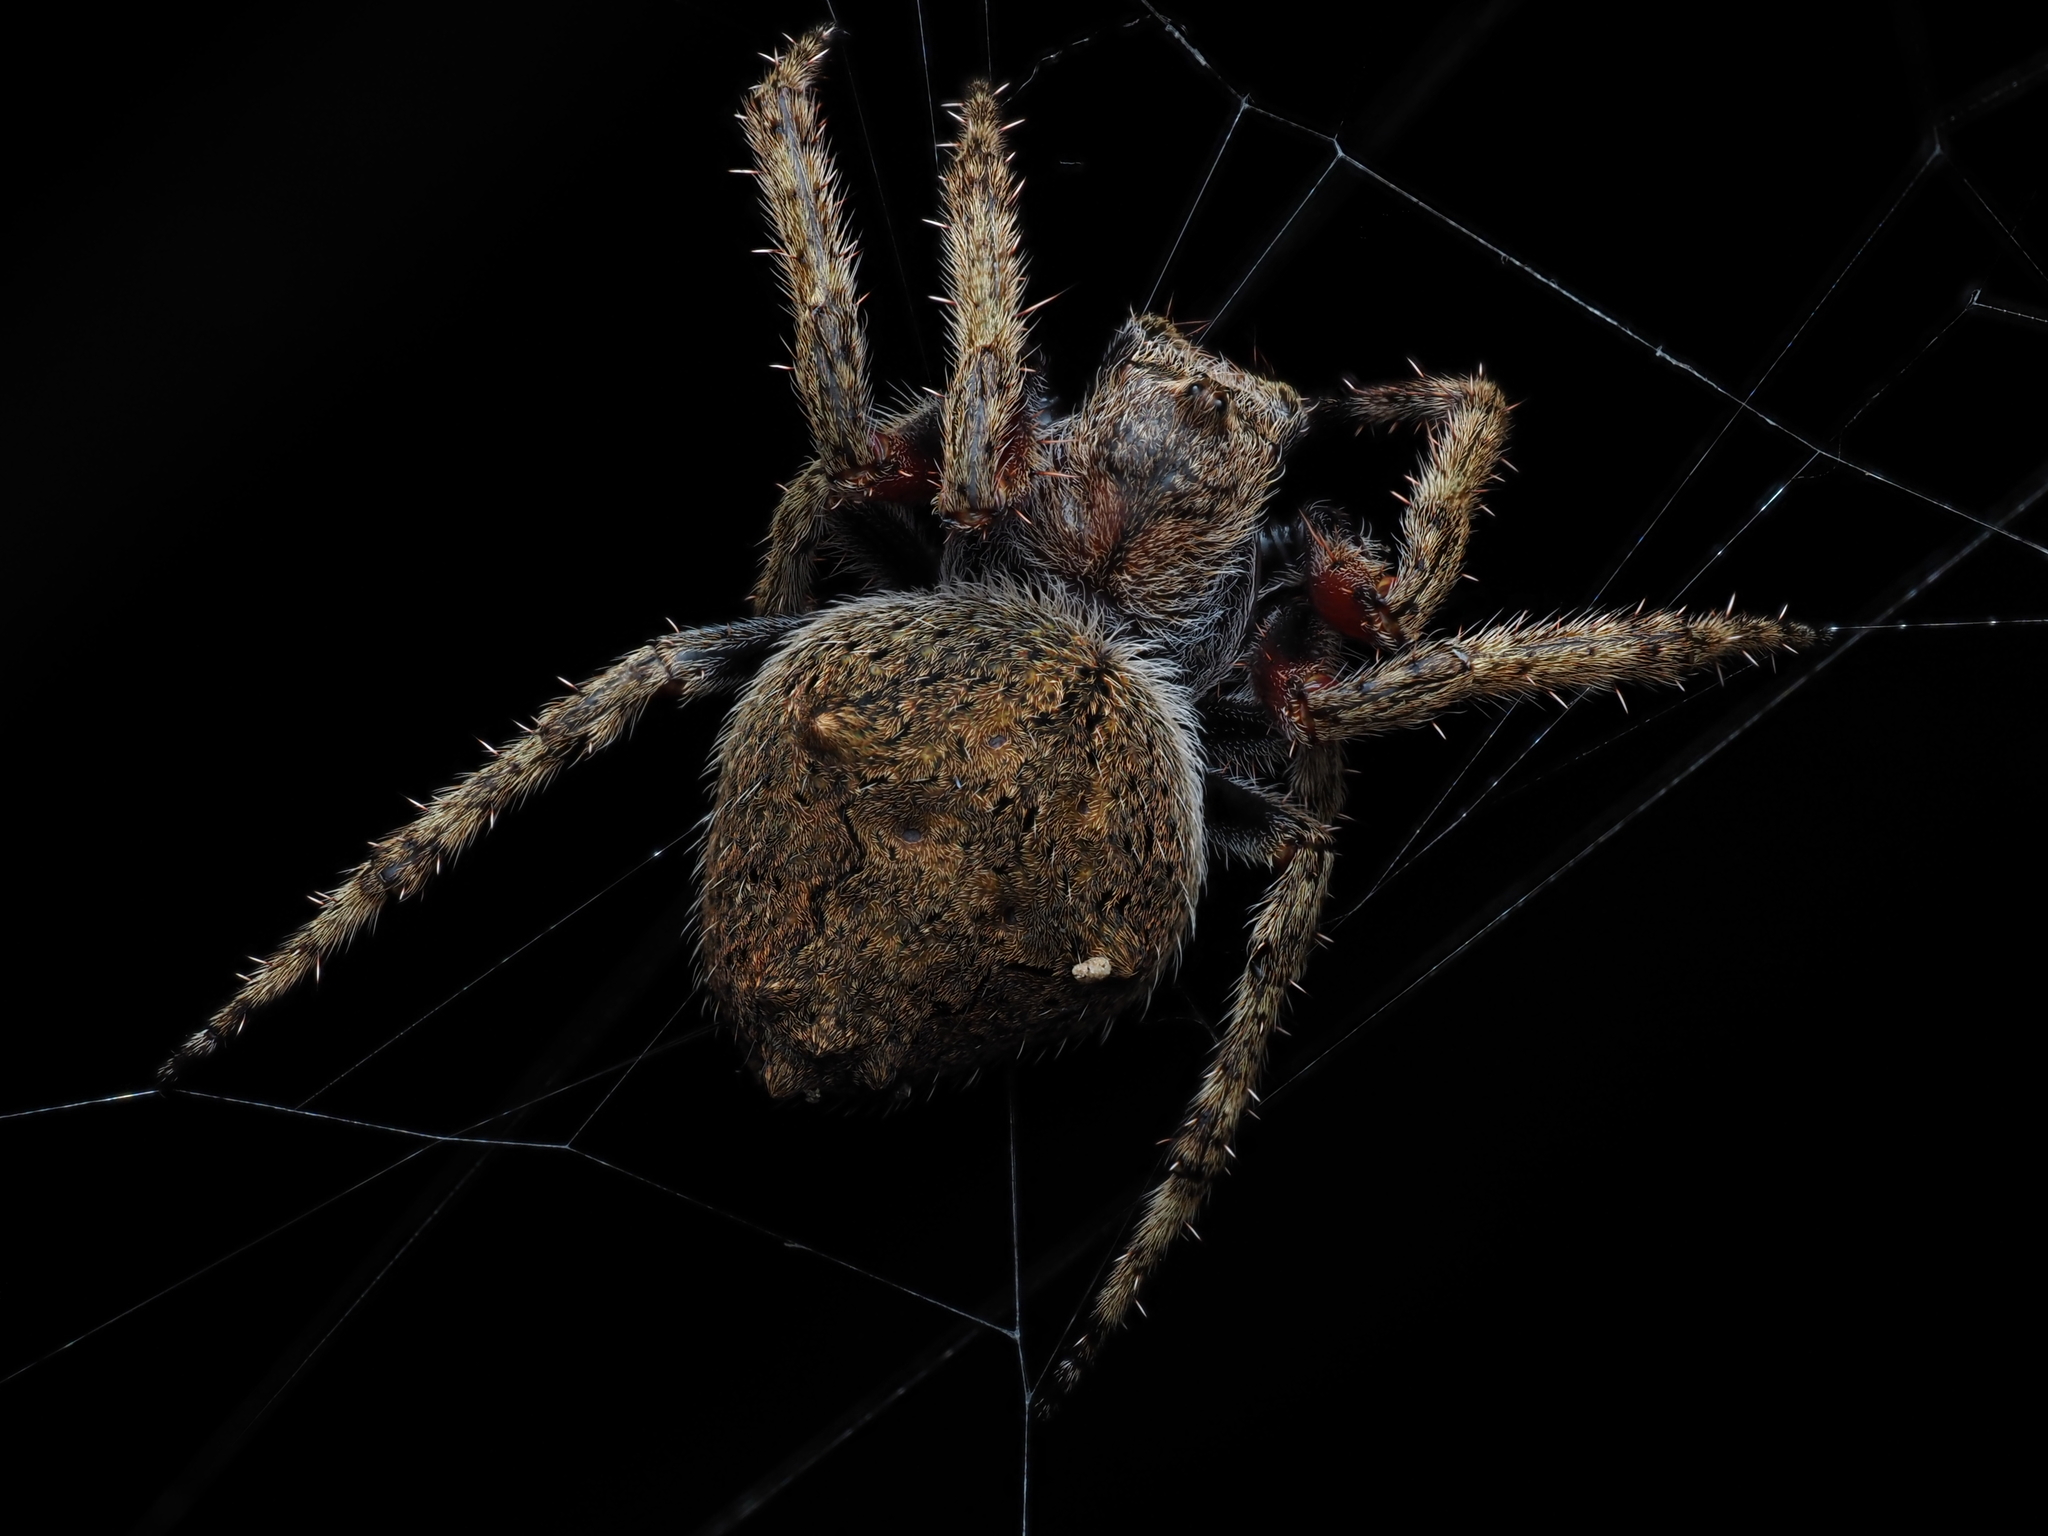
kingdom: Animalia
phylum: Arthropoda
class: Arachnida
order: Araneae
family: Araneidae
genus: Eriophora
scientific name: Eriophora pustulosa
